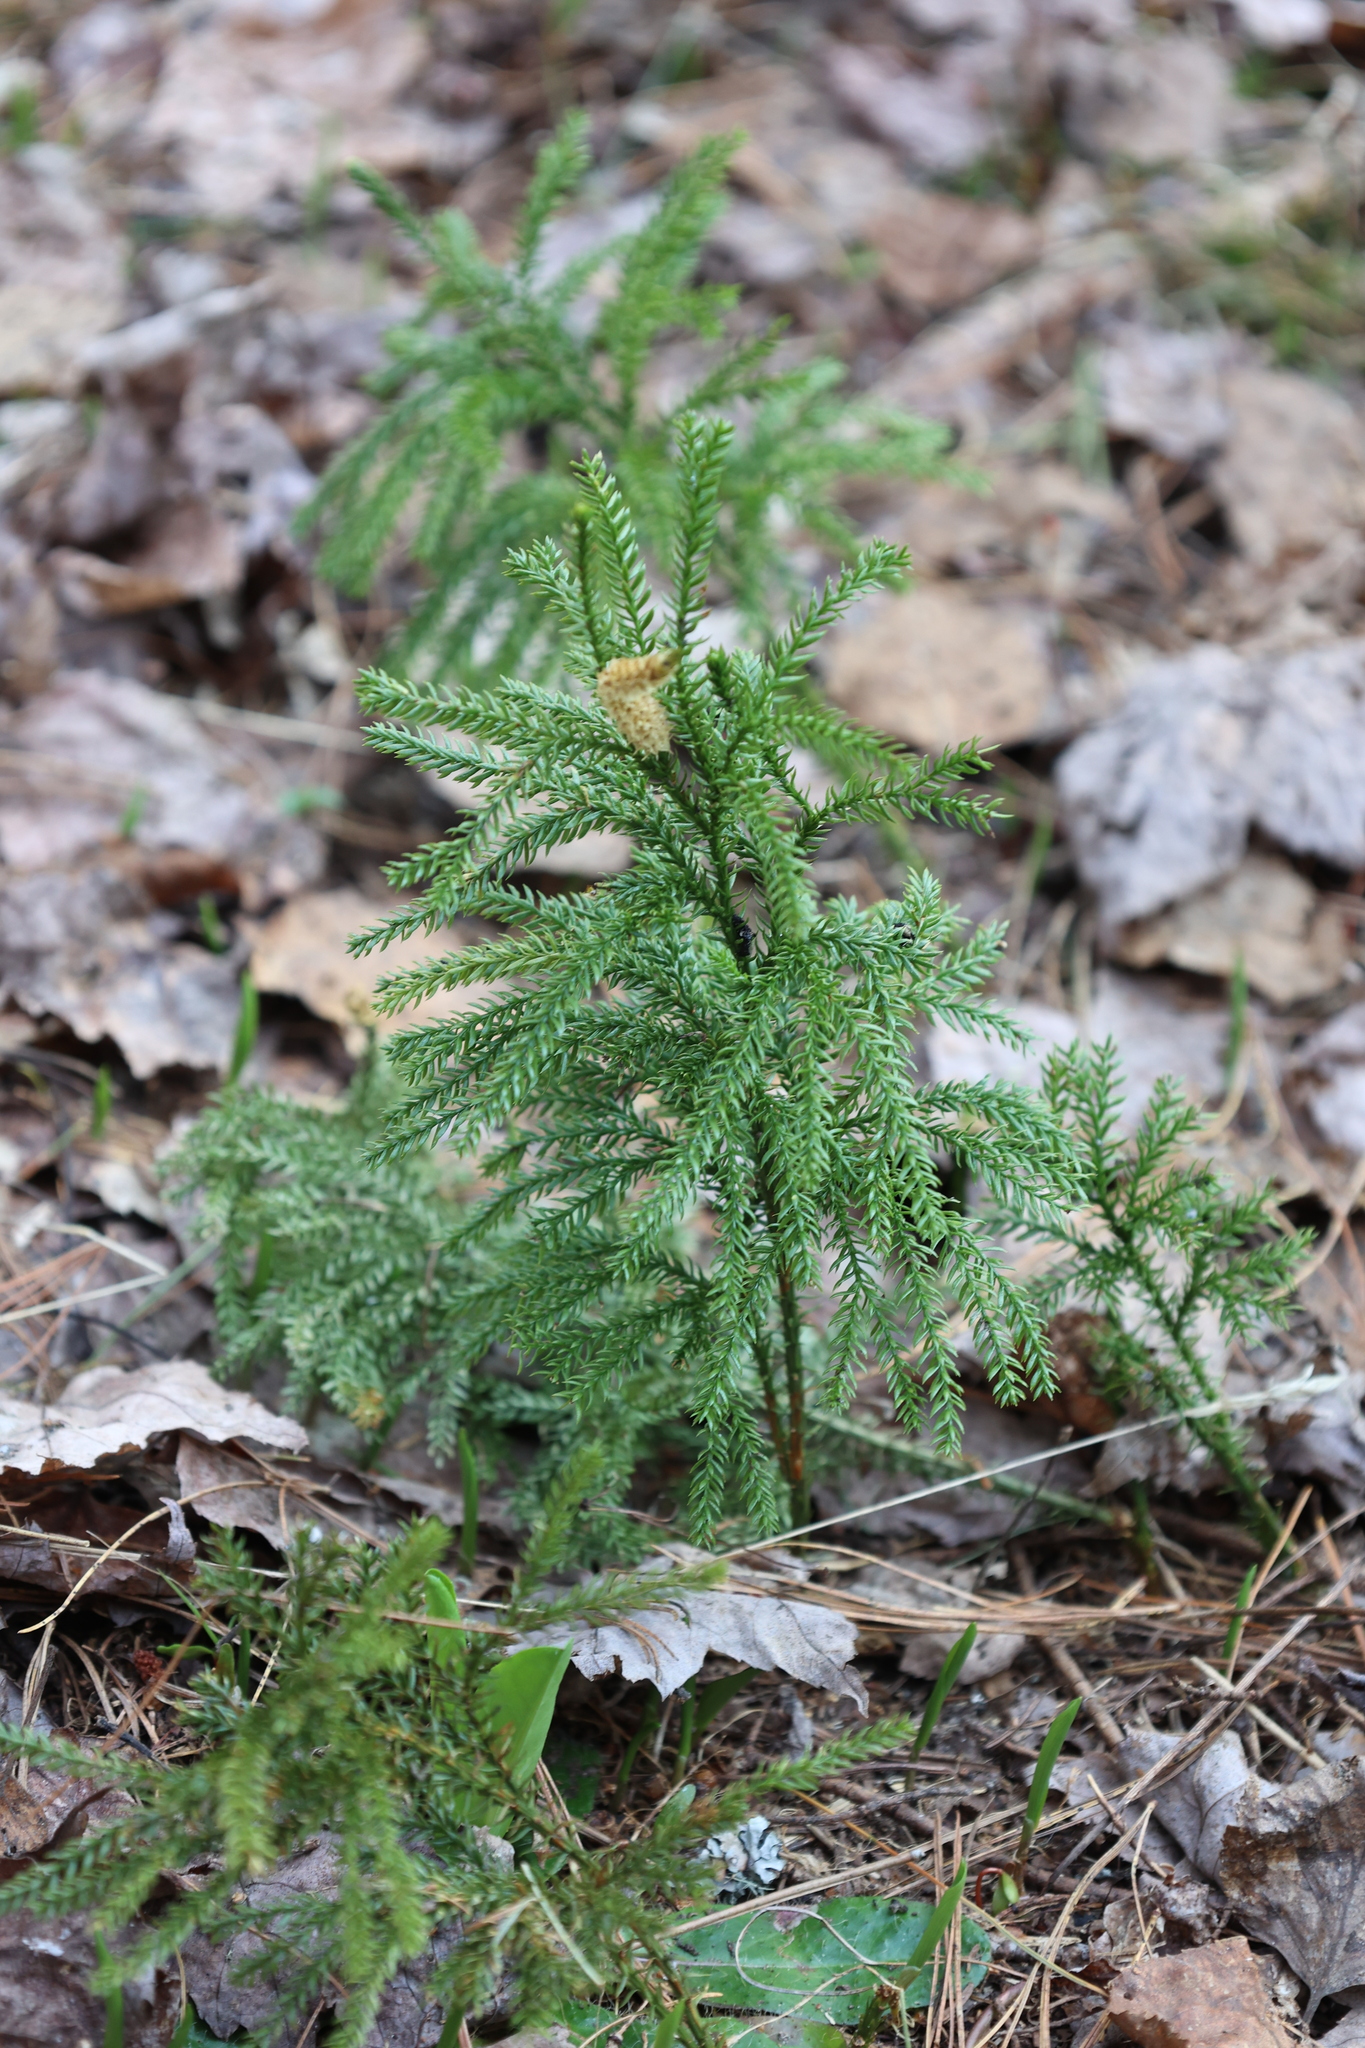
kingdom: Plantae
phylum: Tracheophyta
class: Lycopodiopsida
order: Lycopodiales
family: Lycopodiaceae
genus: Dendrolycopodium
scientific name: Dendrolycopodium dendroideum
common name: Northern tree-clubmoss
